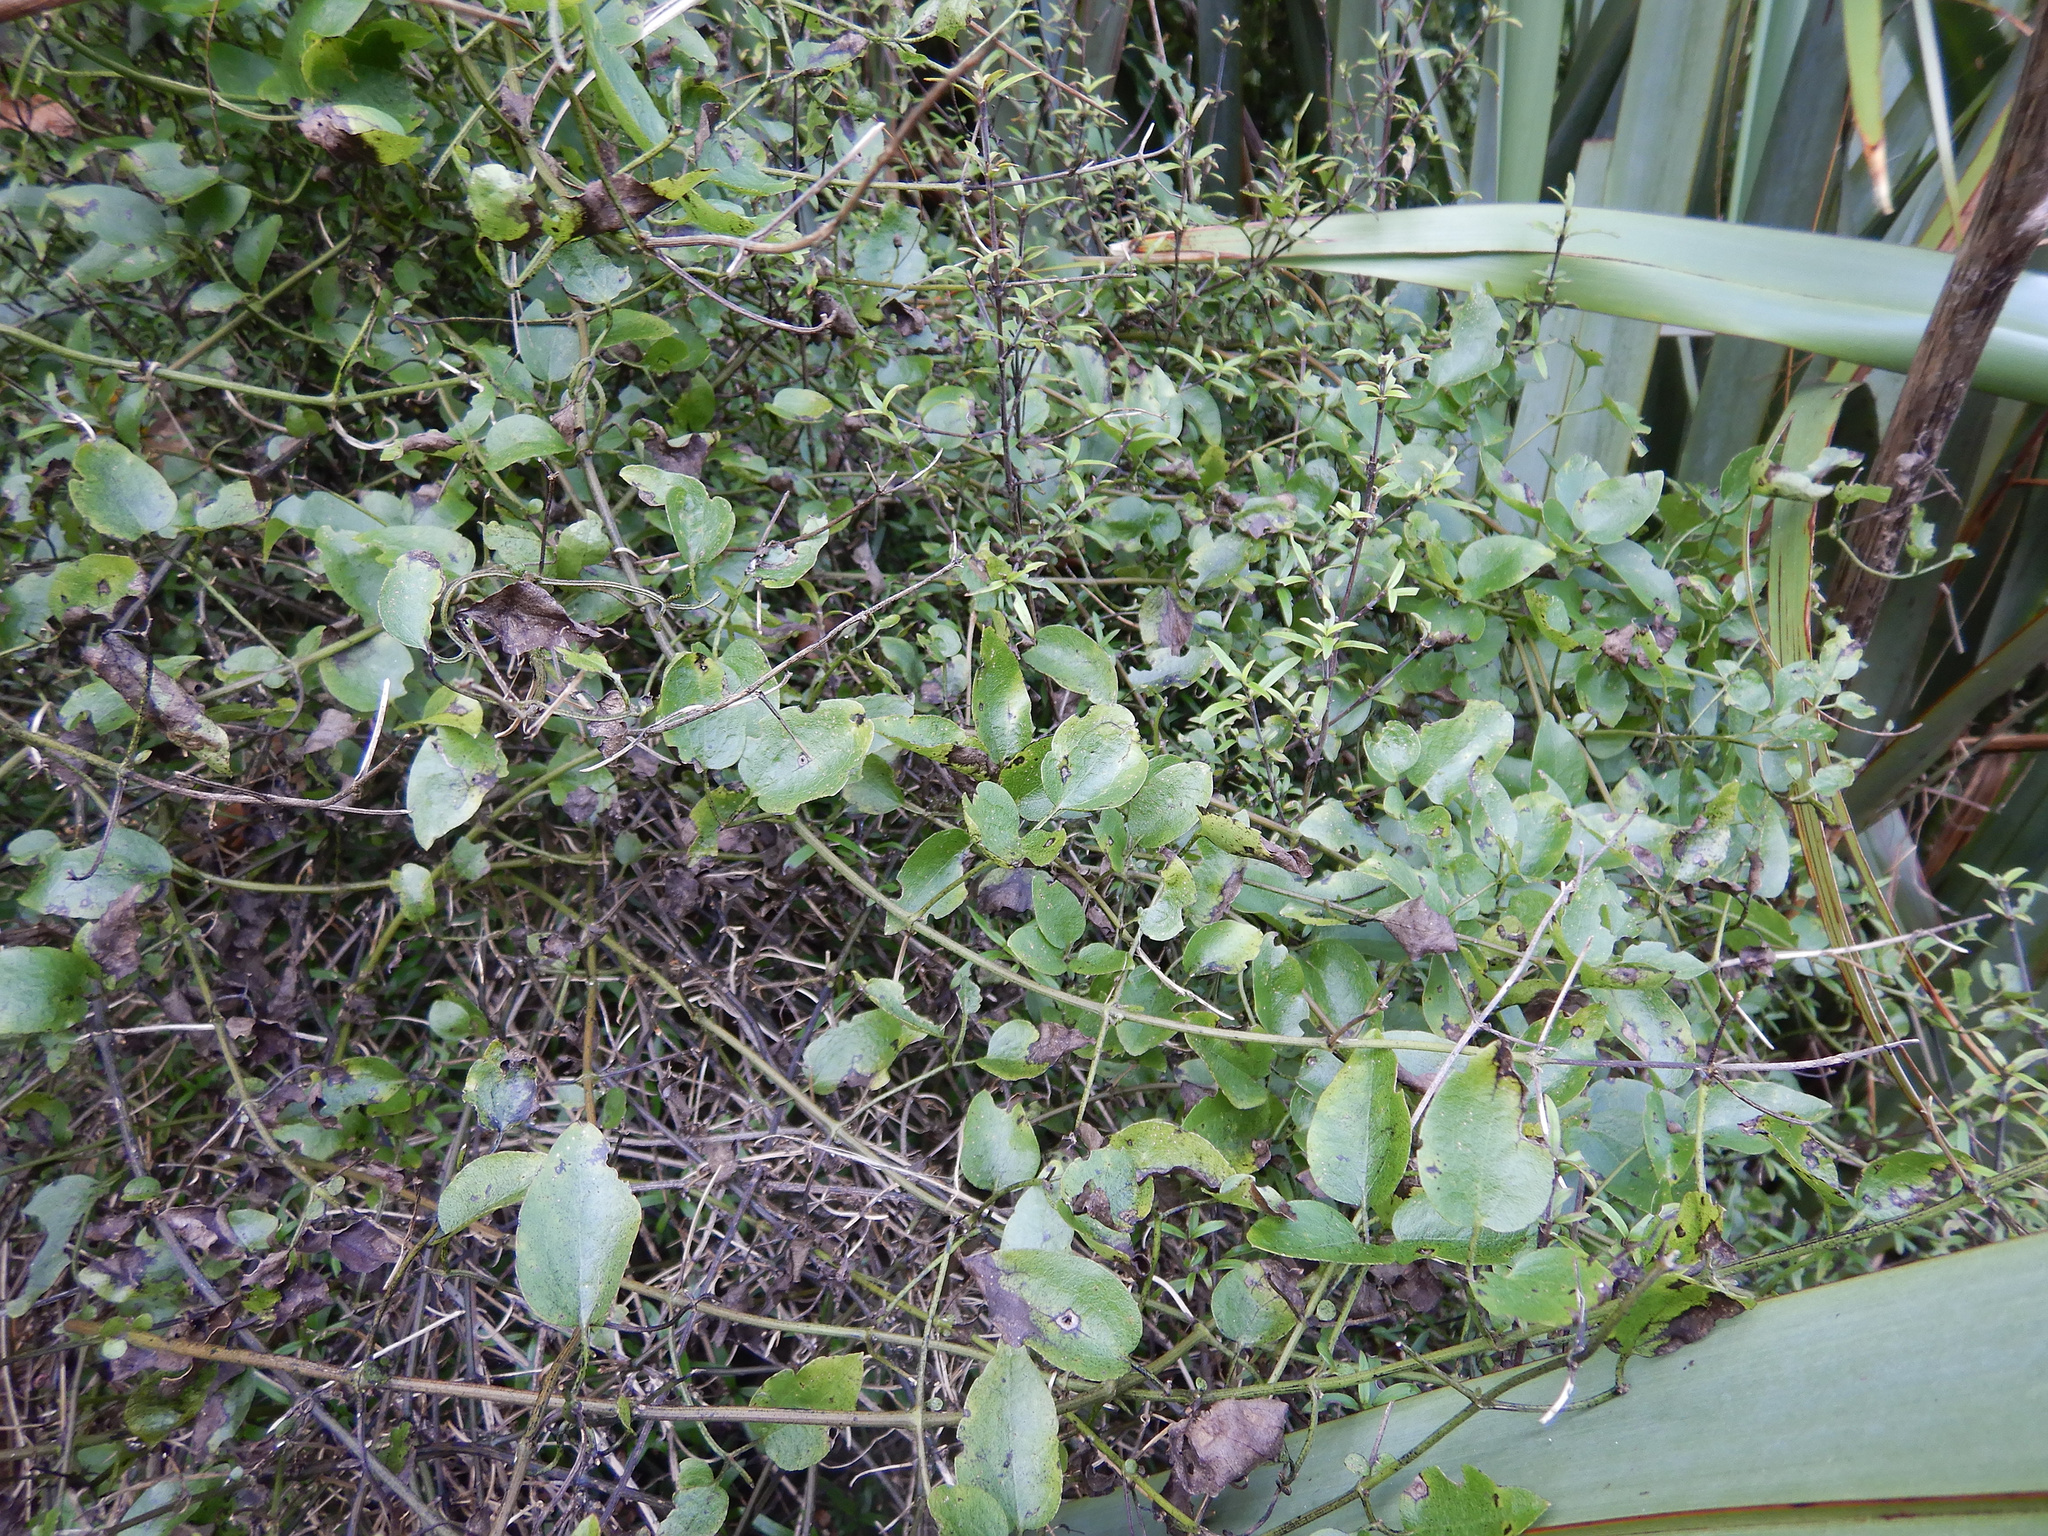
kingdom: Plantae
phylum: Tracheophyta
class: Magnoliopsida
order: Ranunculales
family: Ranunculaceae
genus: Clematis
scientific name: Clematis foetida
